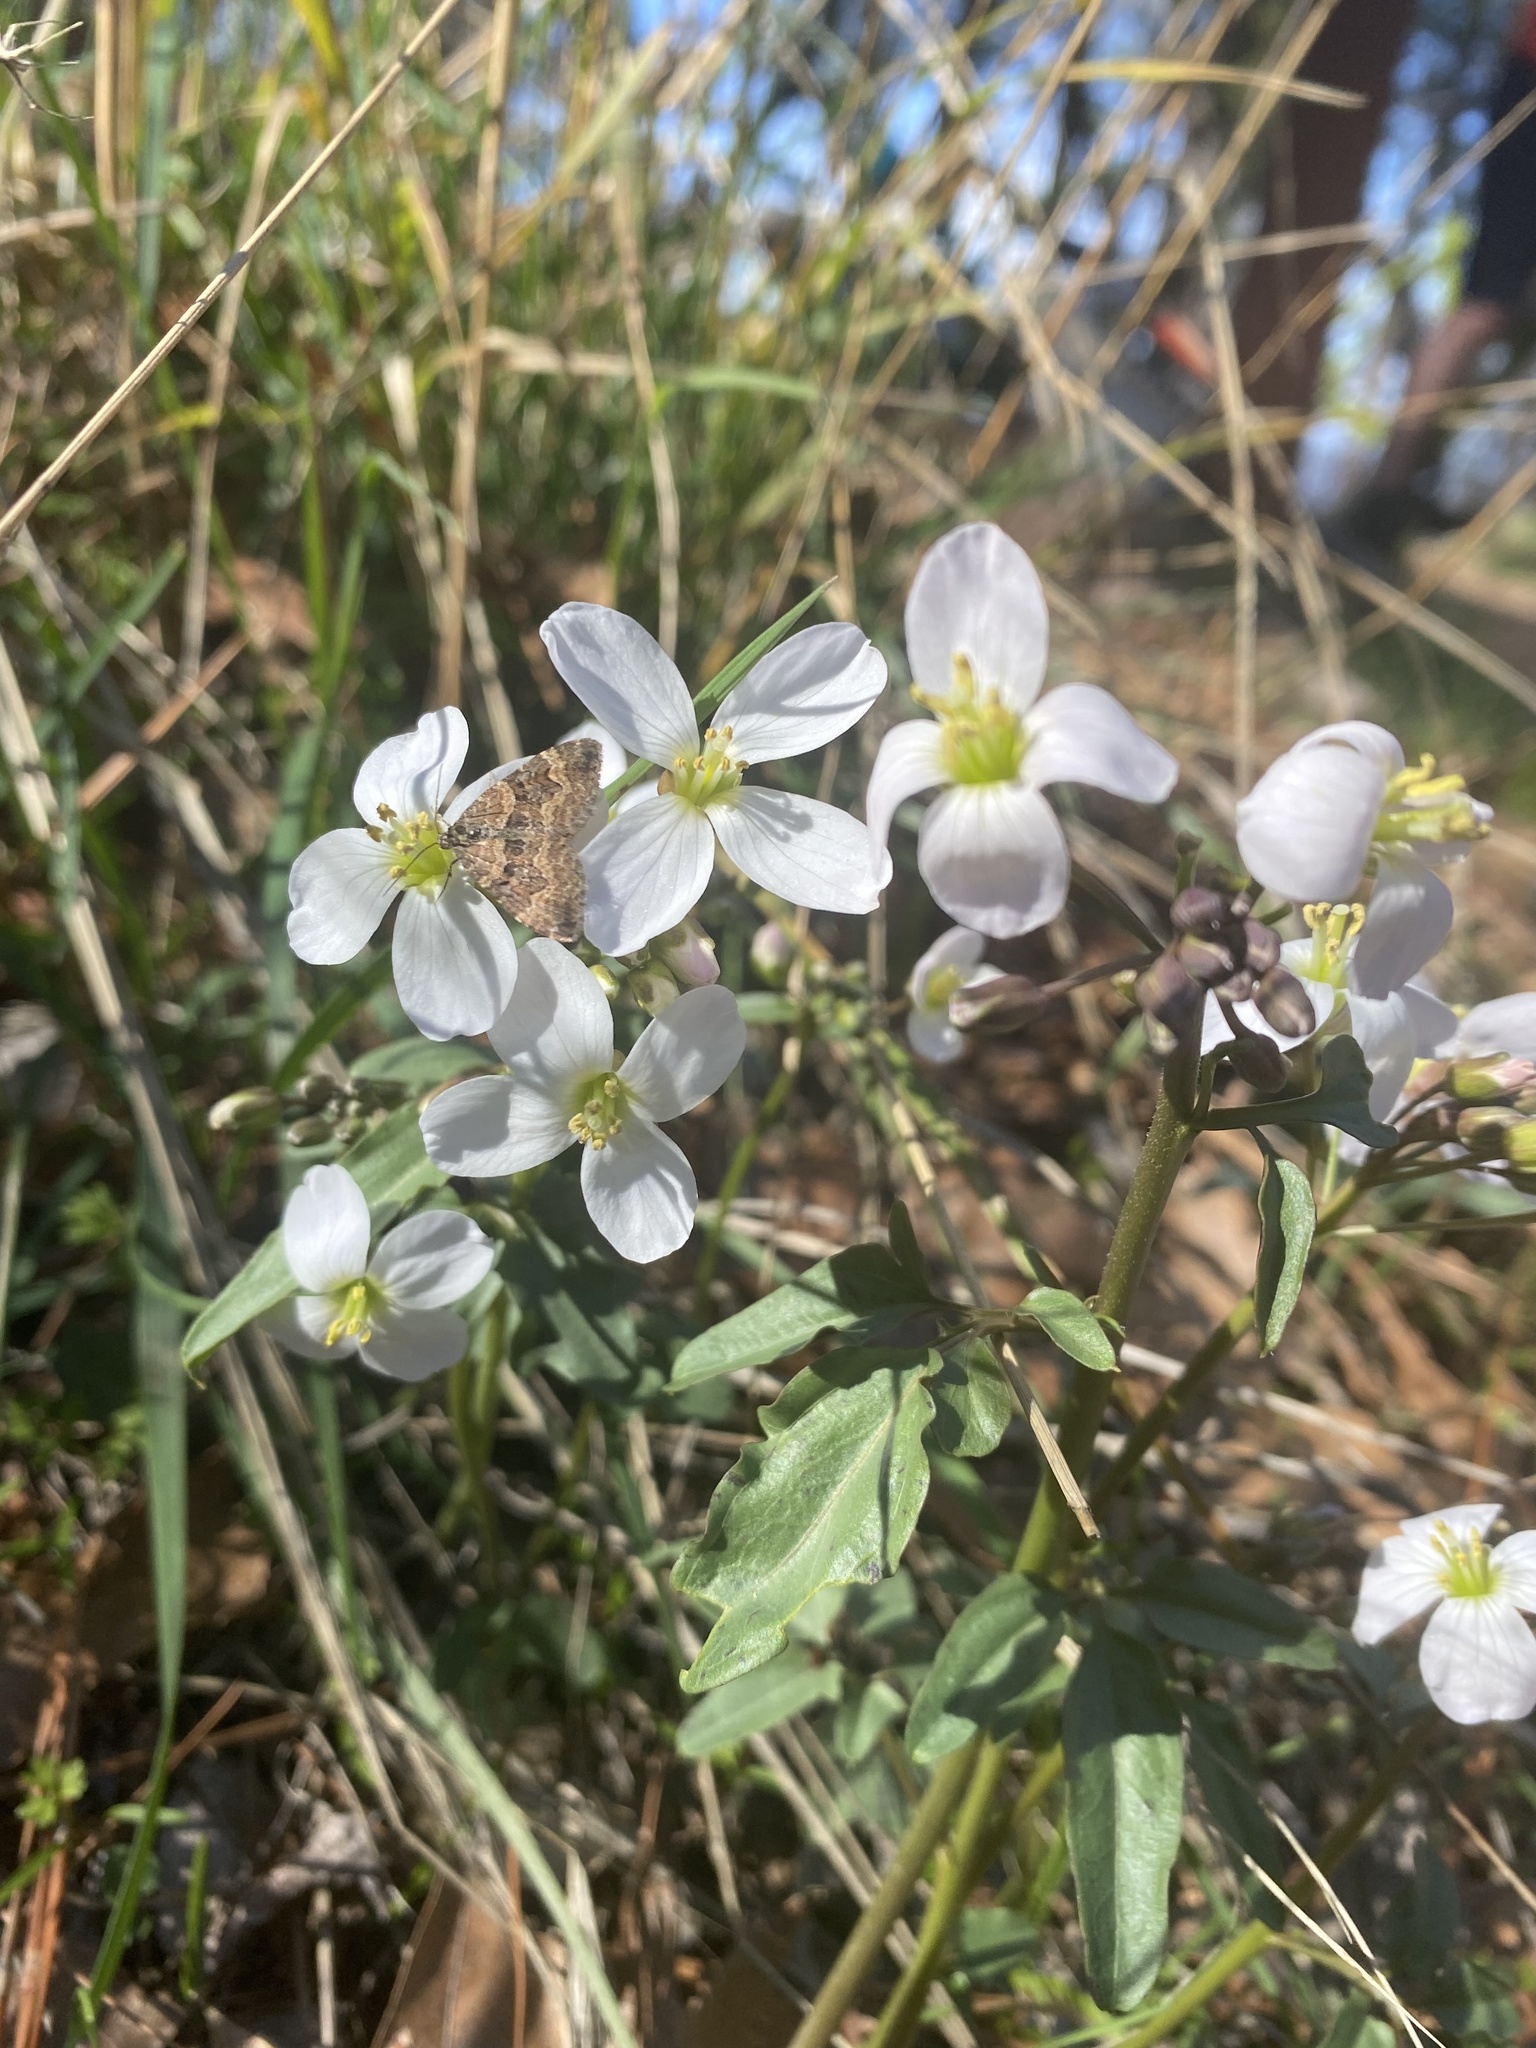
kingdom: Plantae
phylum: Tracheophyta
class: Magnoliopsida
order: Brassicales
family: Brassicaceae
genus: Cardamine
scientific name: Cardamine californica
